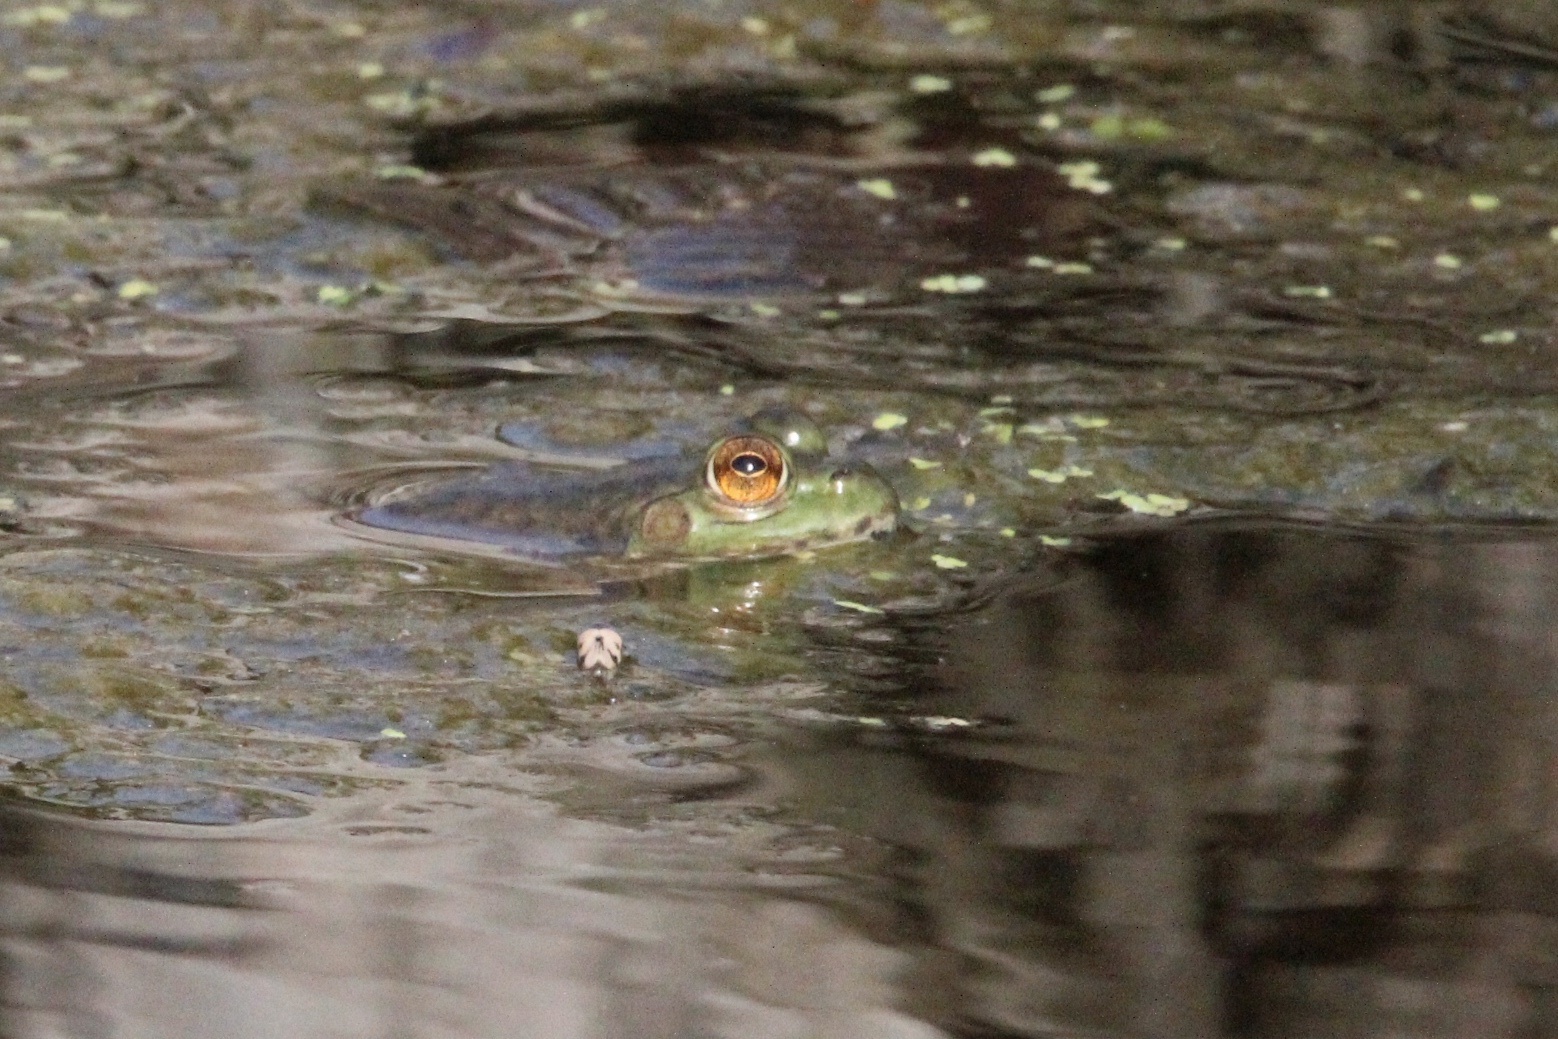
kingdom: Animalia
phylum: Chordata
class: Amphibia
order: Anura
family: Ranidae
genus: Lithobates
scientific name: Lithobates catesbeianus
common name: American bullfrog
